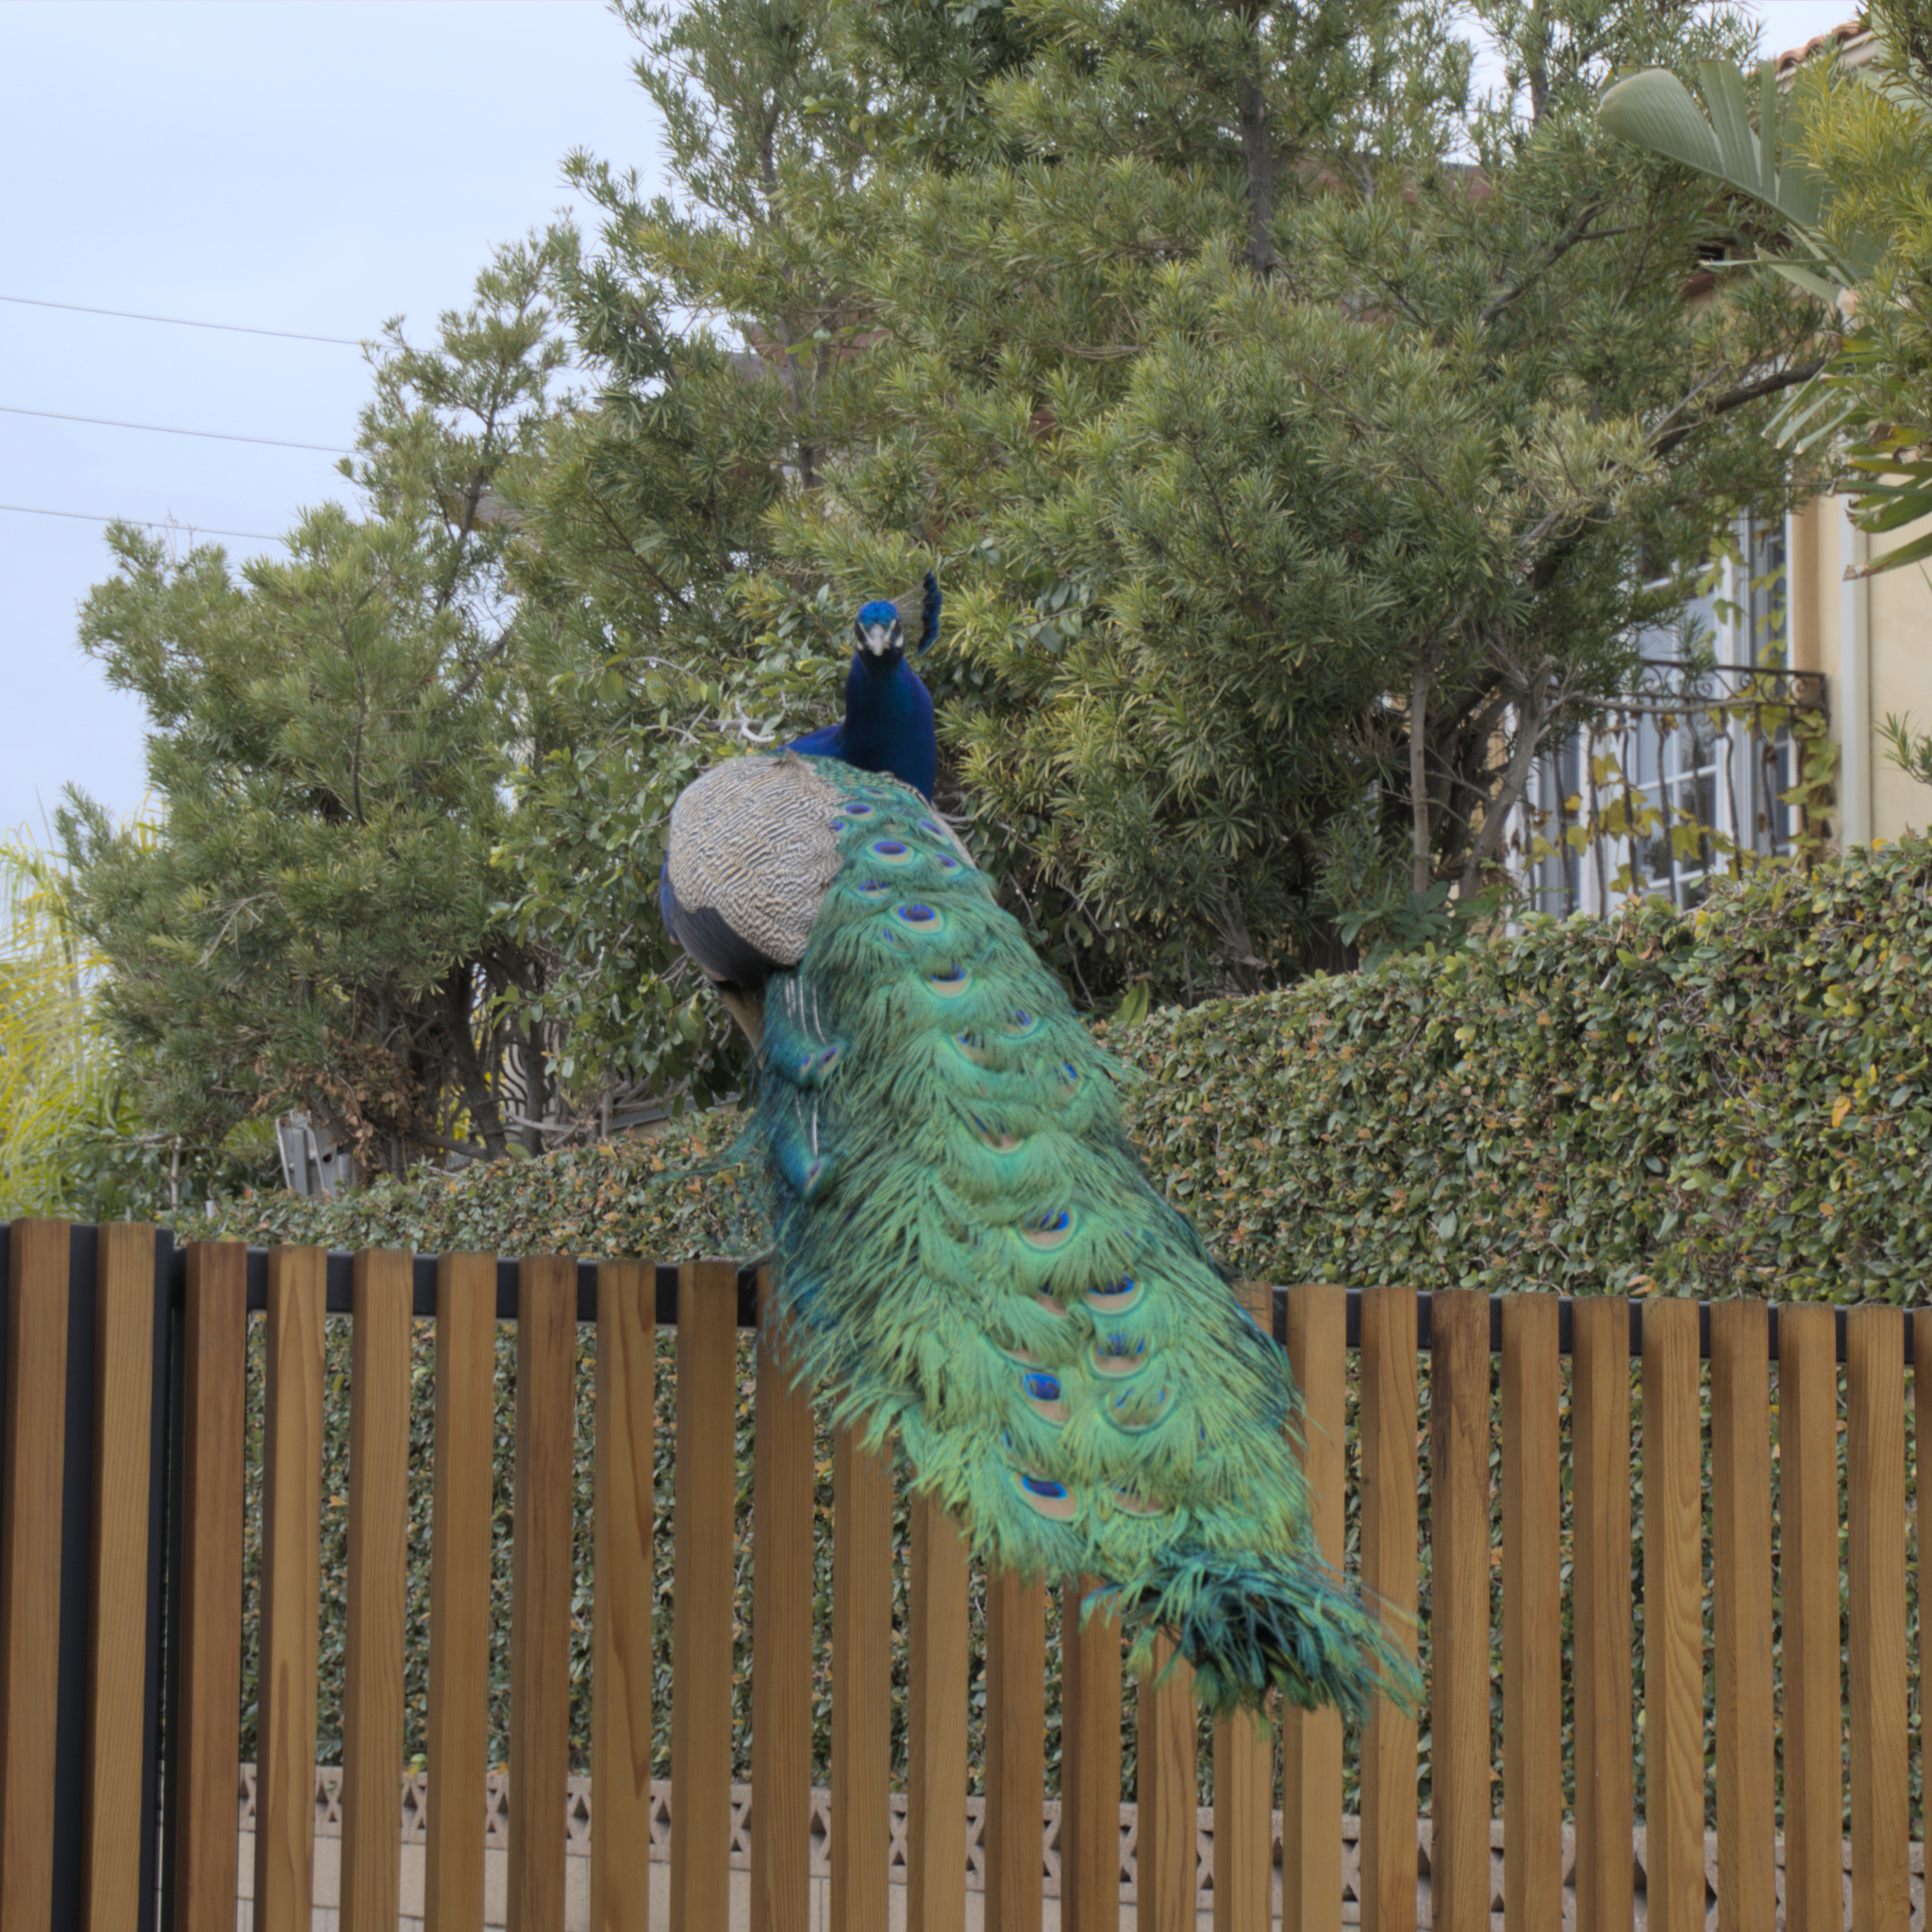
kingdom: Animalia
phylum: Chordata
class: Aves
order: Galliformes
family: Phasianidae
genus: Pavo
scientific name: Pavo cristatus
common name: Indian peafowl
